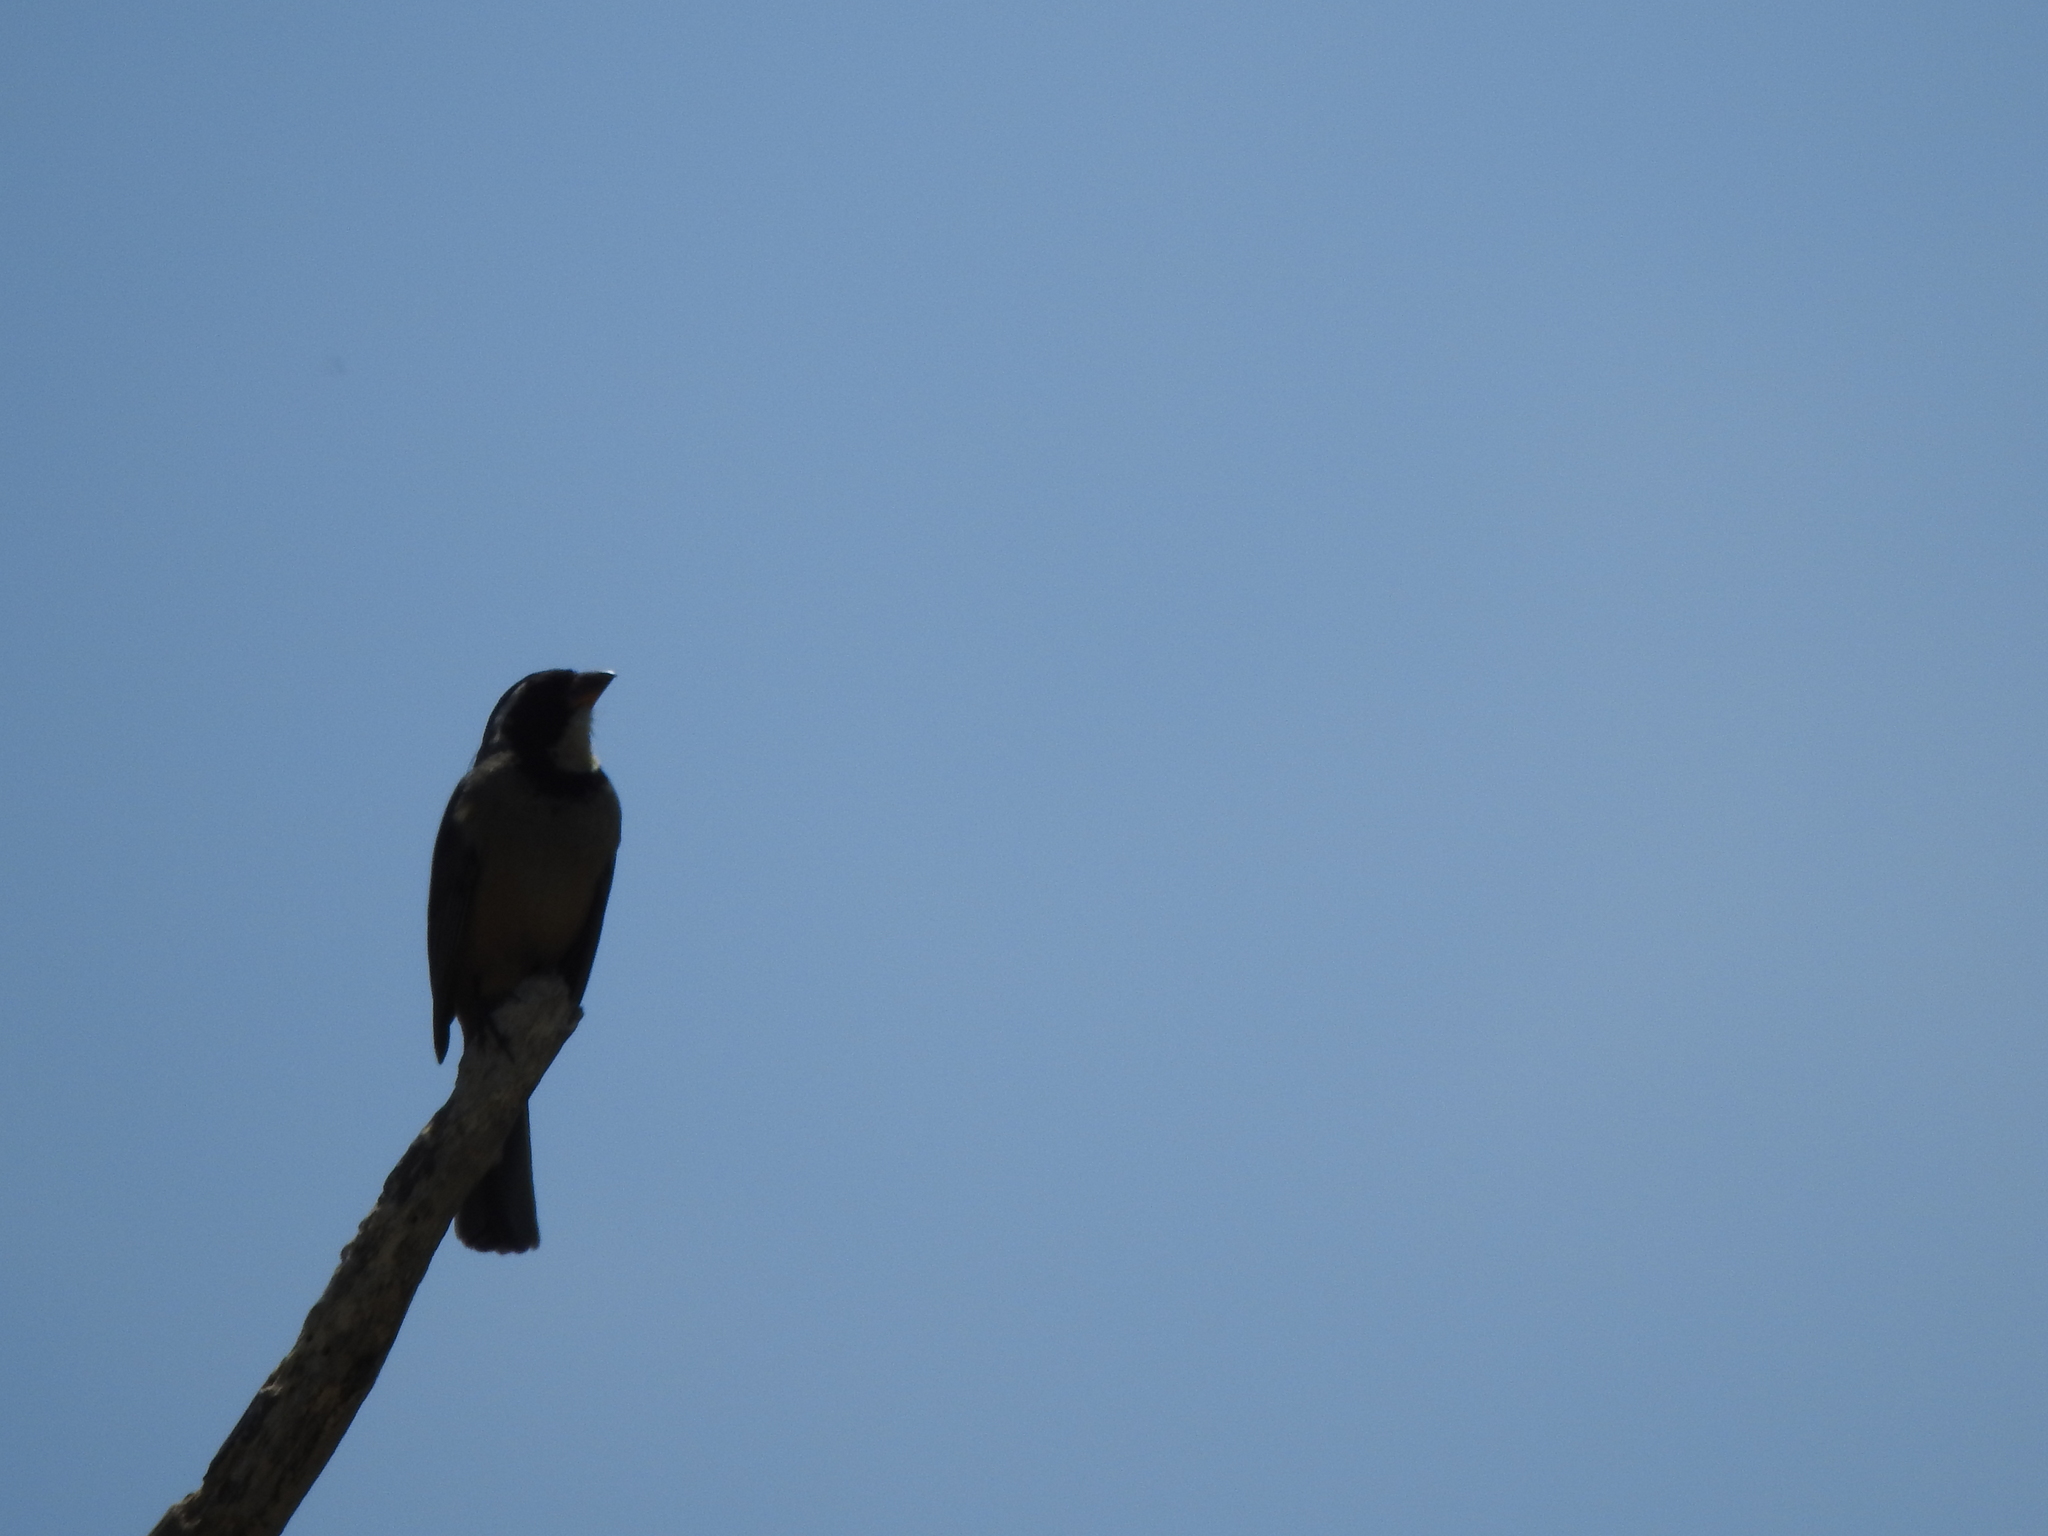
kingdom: Animalia
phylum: Chordata
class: Aves
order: Passeriformes
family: Thraupidae
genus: Saltator
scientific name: Saltator aurantiirostris
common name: Golden-billed saltator
